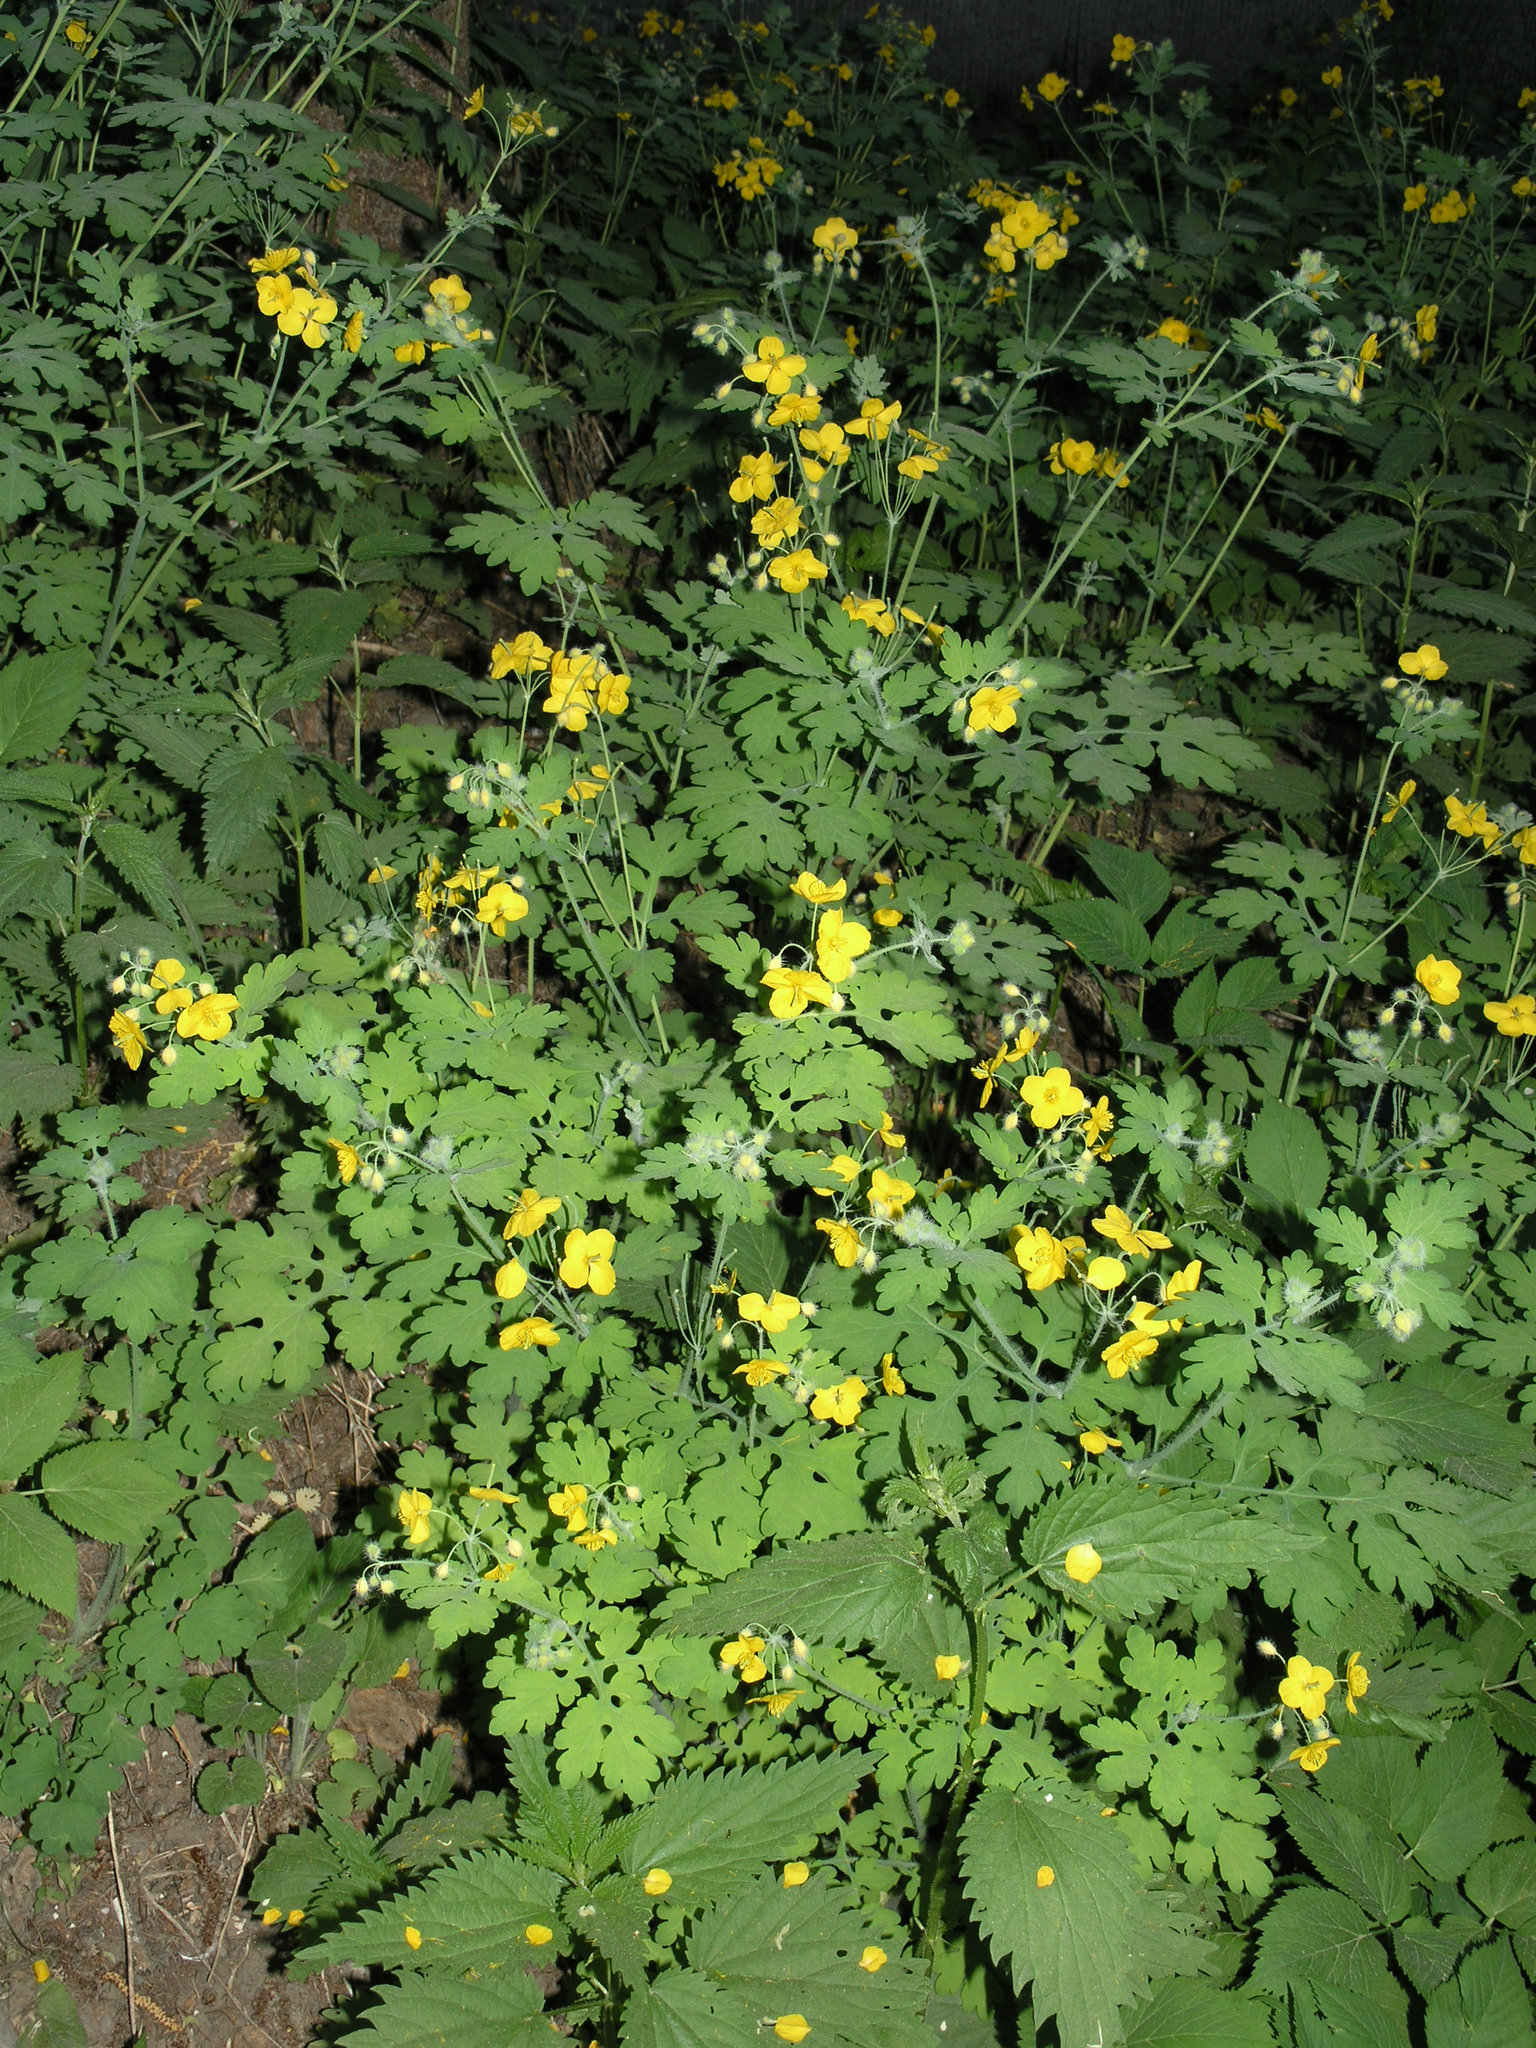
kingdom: Plantae
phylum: Tracheophyta
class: Magnoliopsida
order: Ranunculales
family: Papaveraceae
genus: Chelidonium
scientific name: Chelidonium majus
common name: Greater celandine
